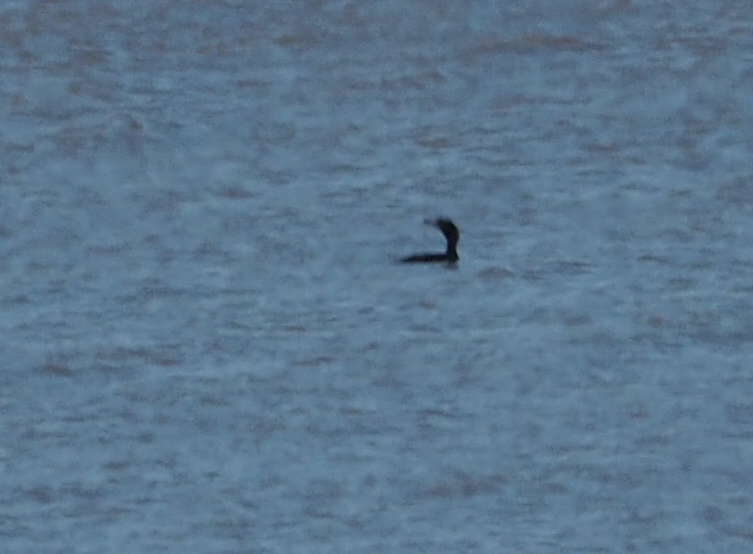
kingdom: Animalia
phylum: Chordata
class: Aves
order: Suliformes
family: Phalacrocoracidae
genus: Phalacrocorax
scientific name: Phalacrocorax auritus
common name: Double-crested cormorant
